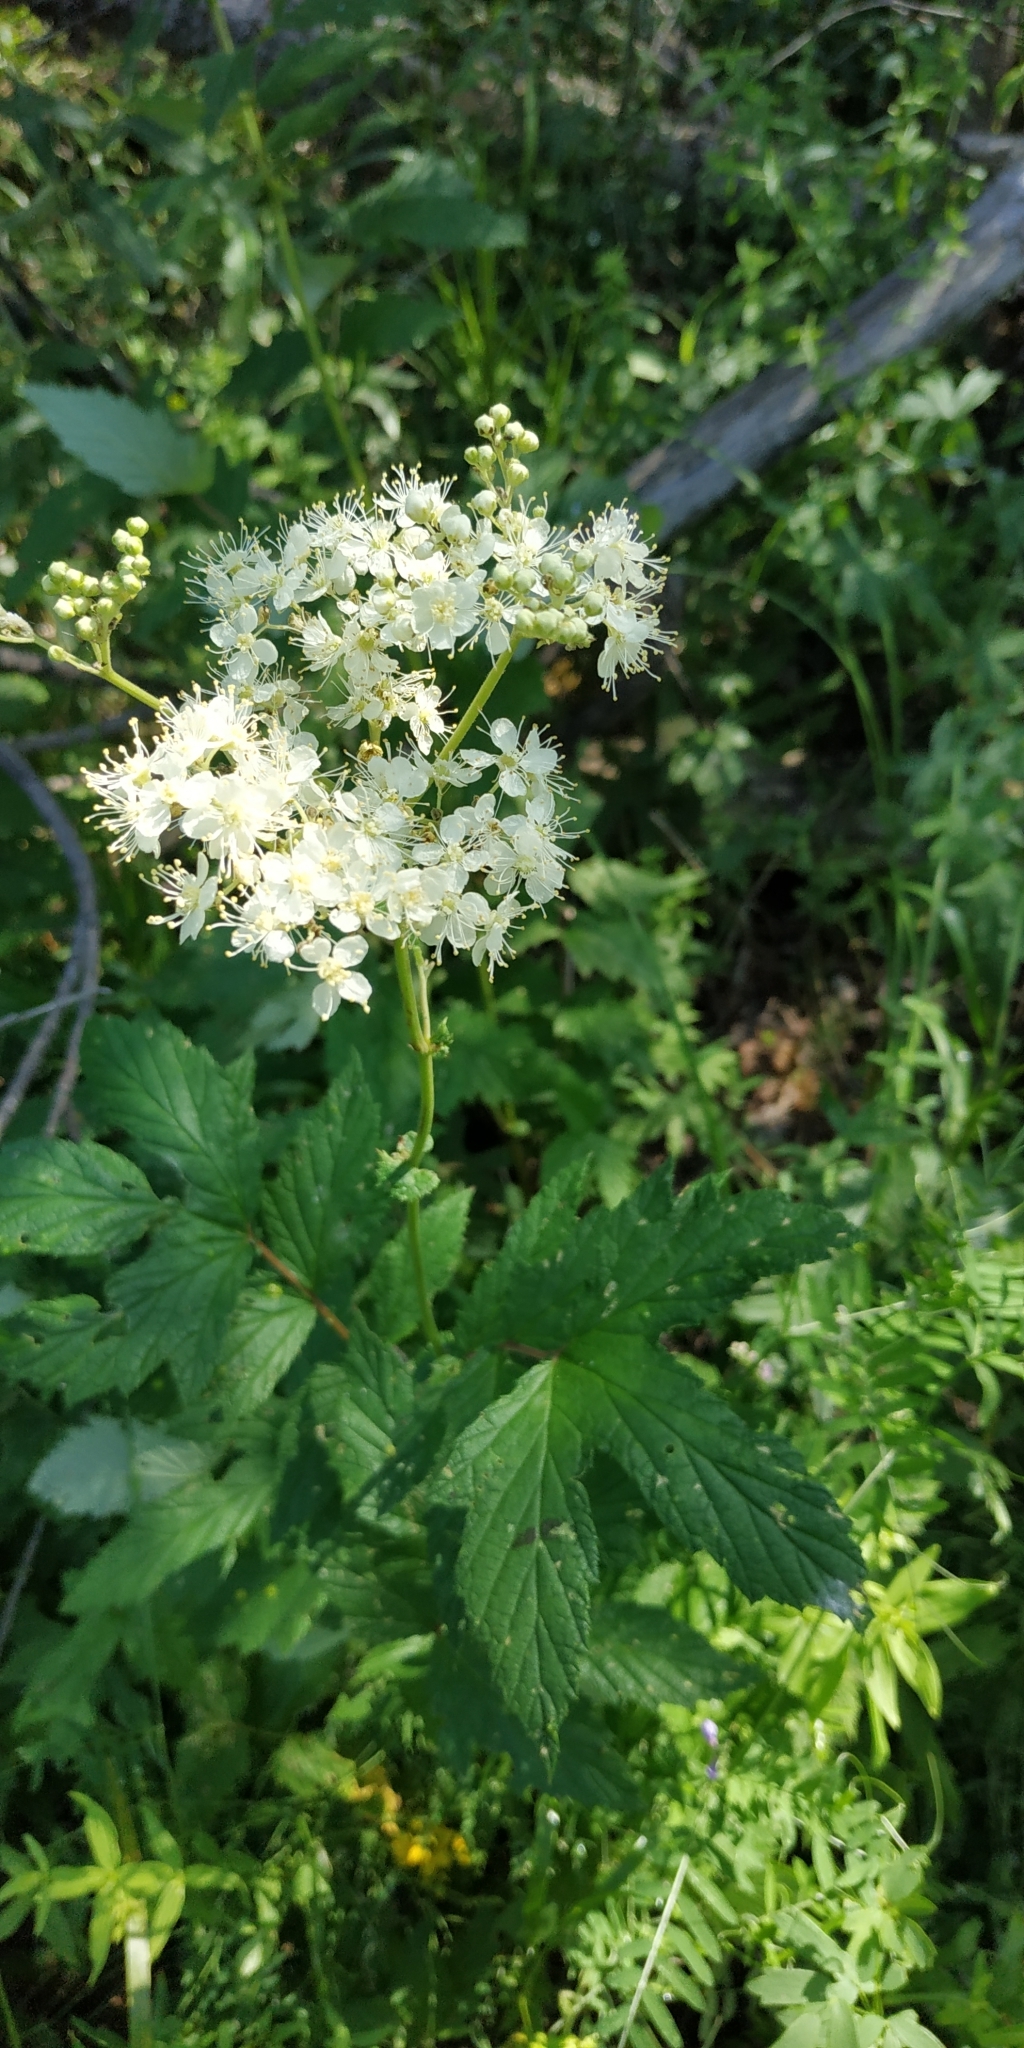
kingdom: Plantae
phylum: Tracheophyta
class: Magnoliopsida
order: Rosales
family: Rosaceae
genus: Filipendula
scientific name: Filipendula ulmaria
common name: Meadowsweet
